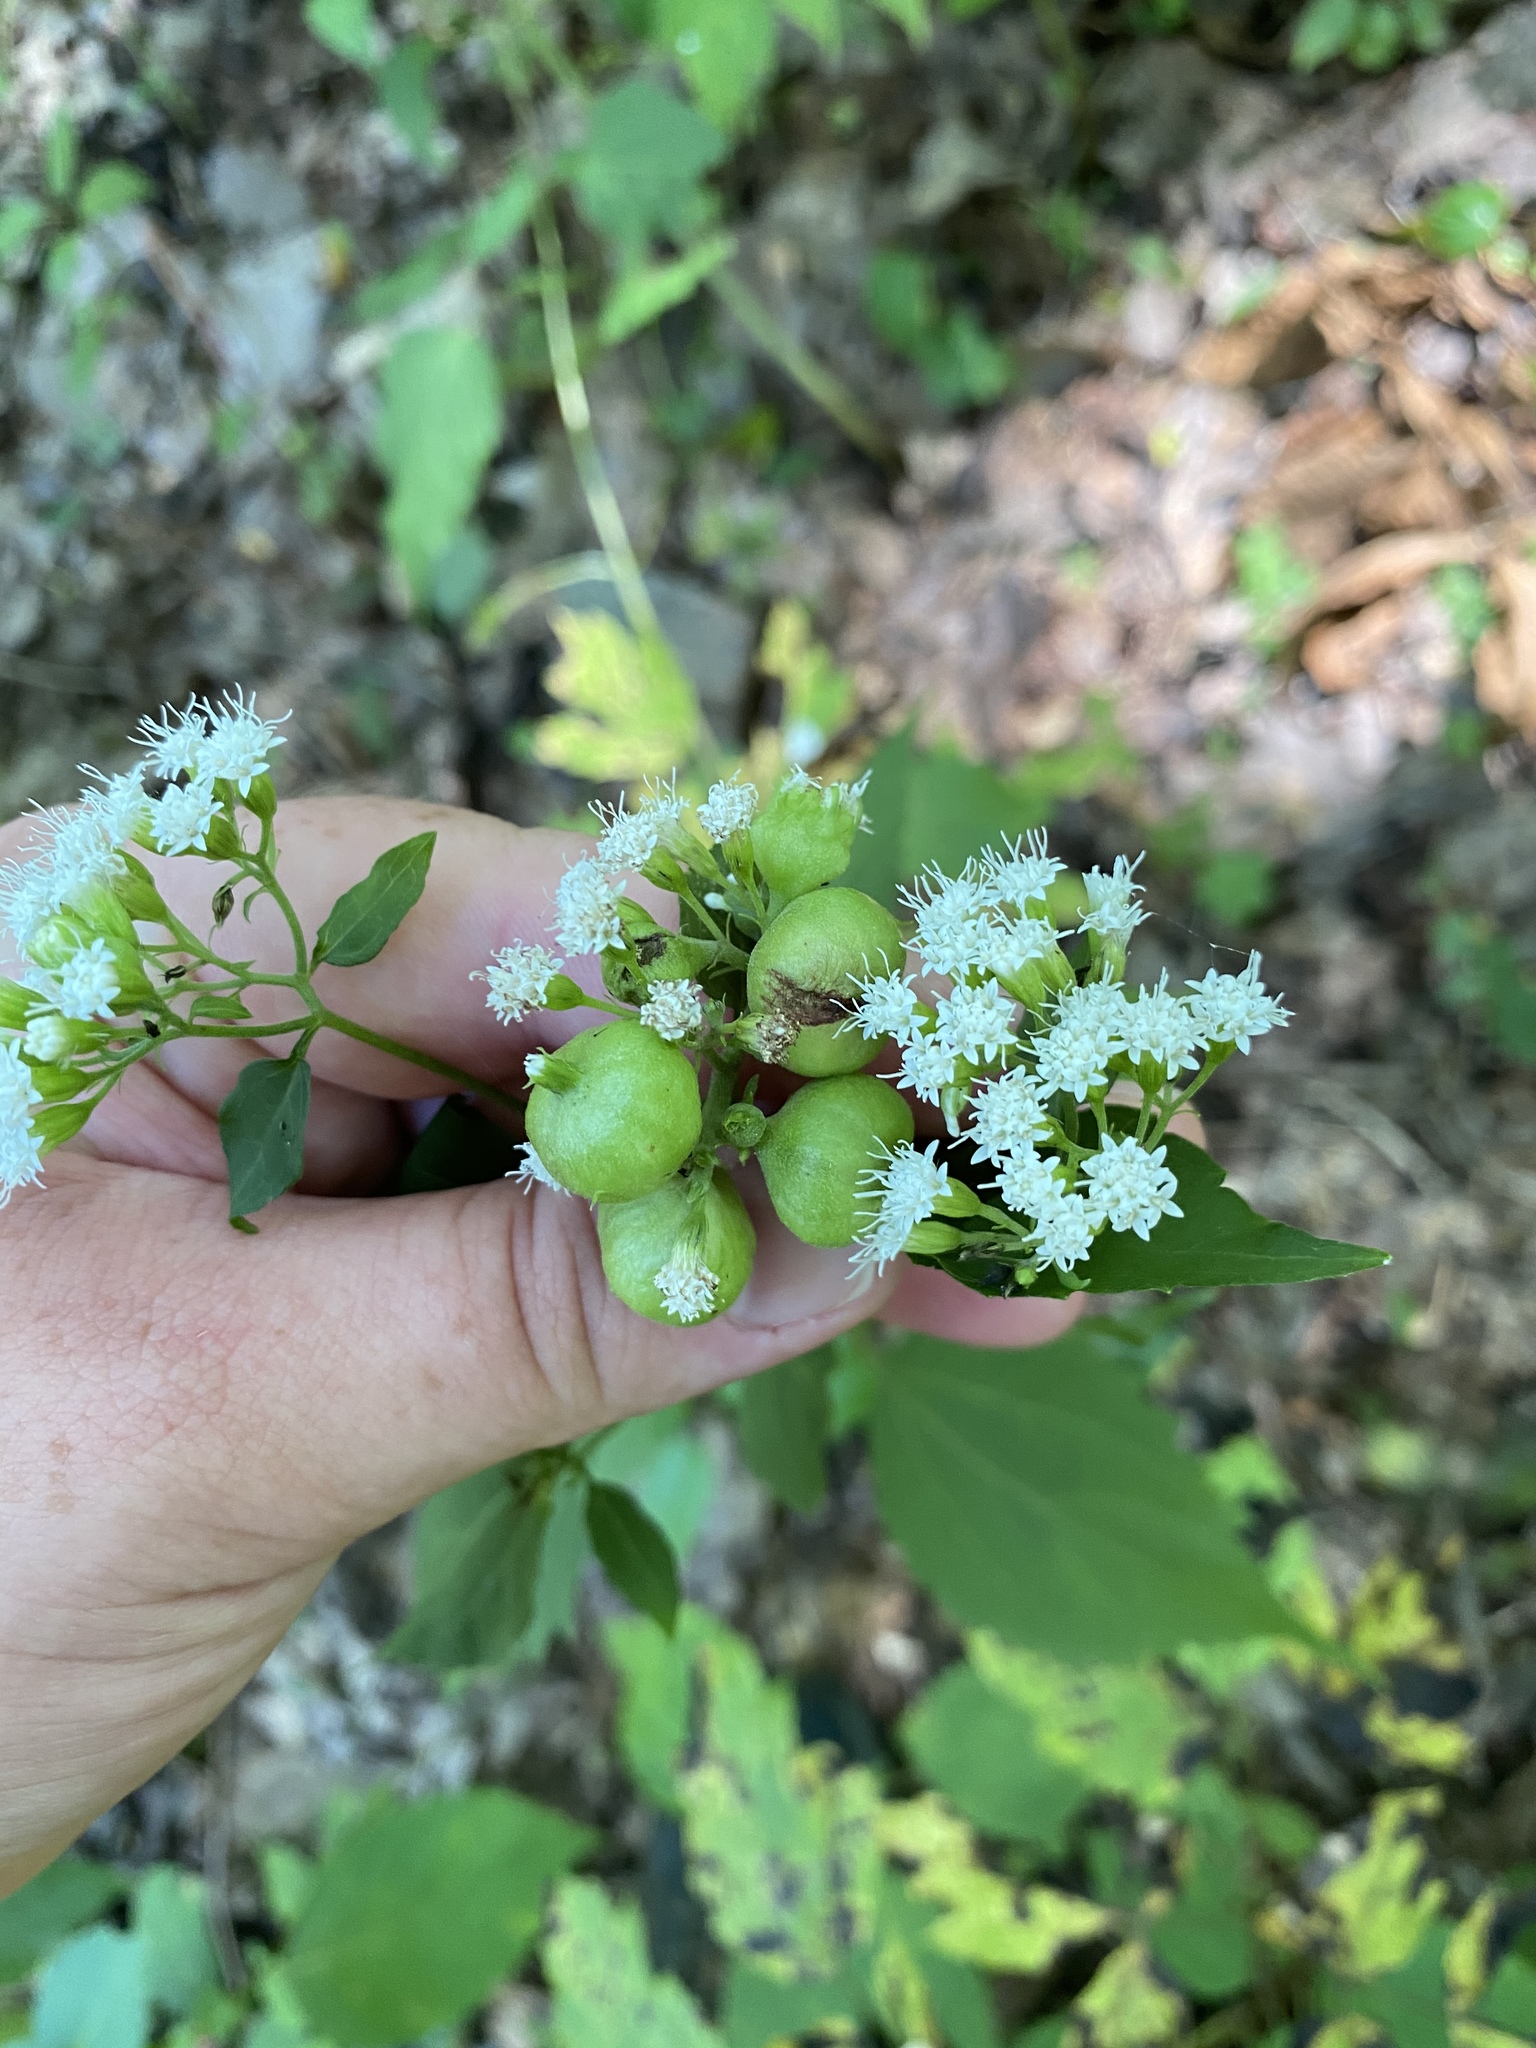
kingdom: Animalia
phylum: Arthropoda
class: Insecta
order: Diptera
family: Cecidomyiidae
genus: Schizomyia
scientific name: Schizomyia eupatoriflorae
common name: Boneset flower gall midge
